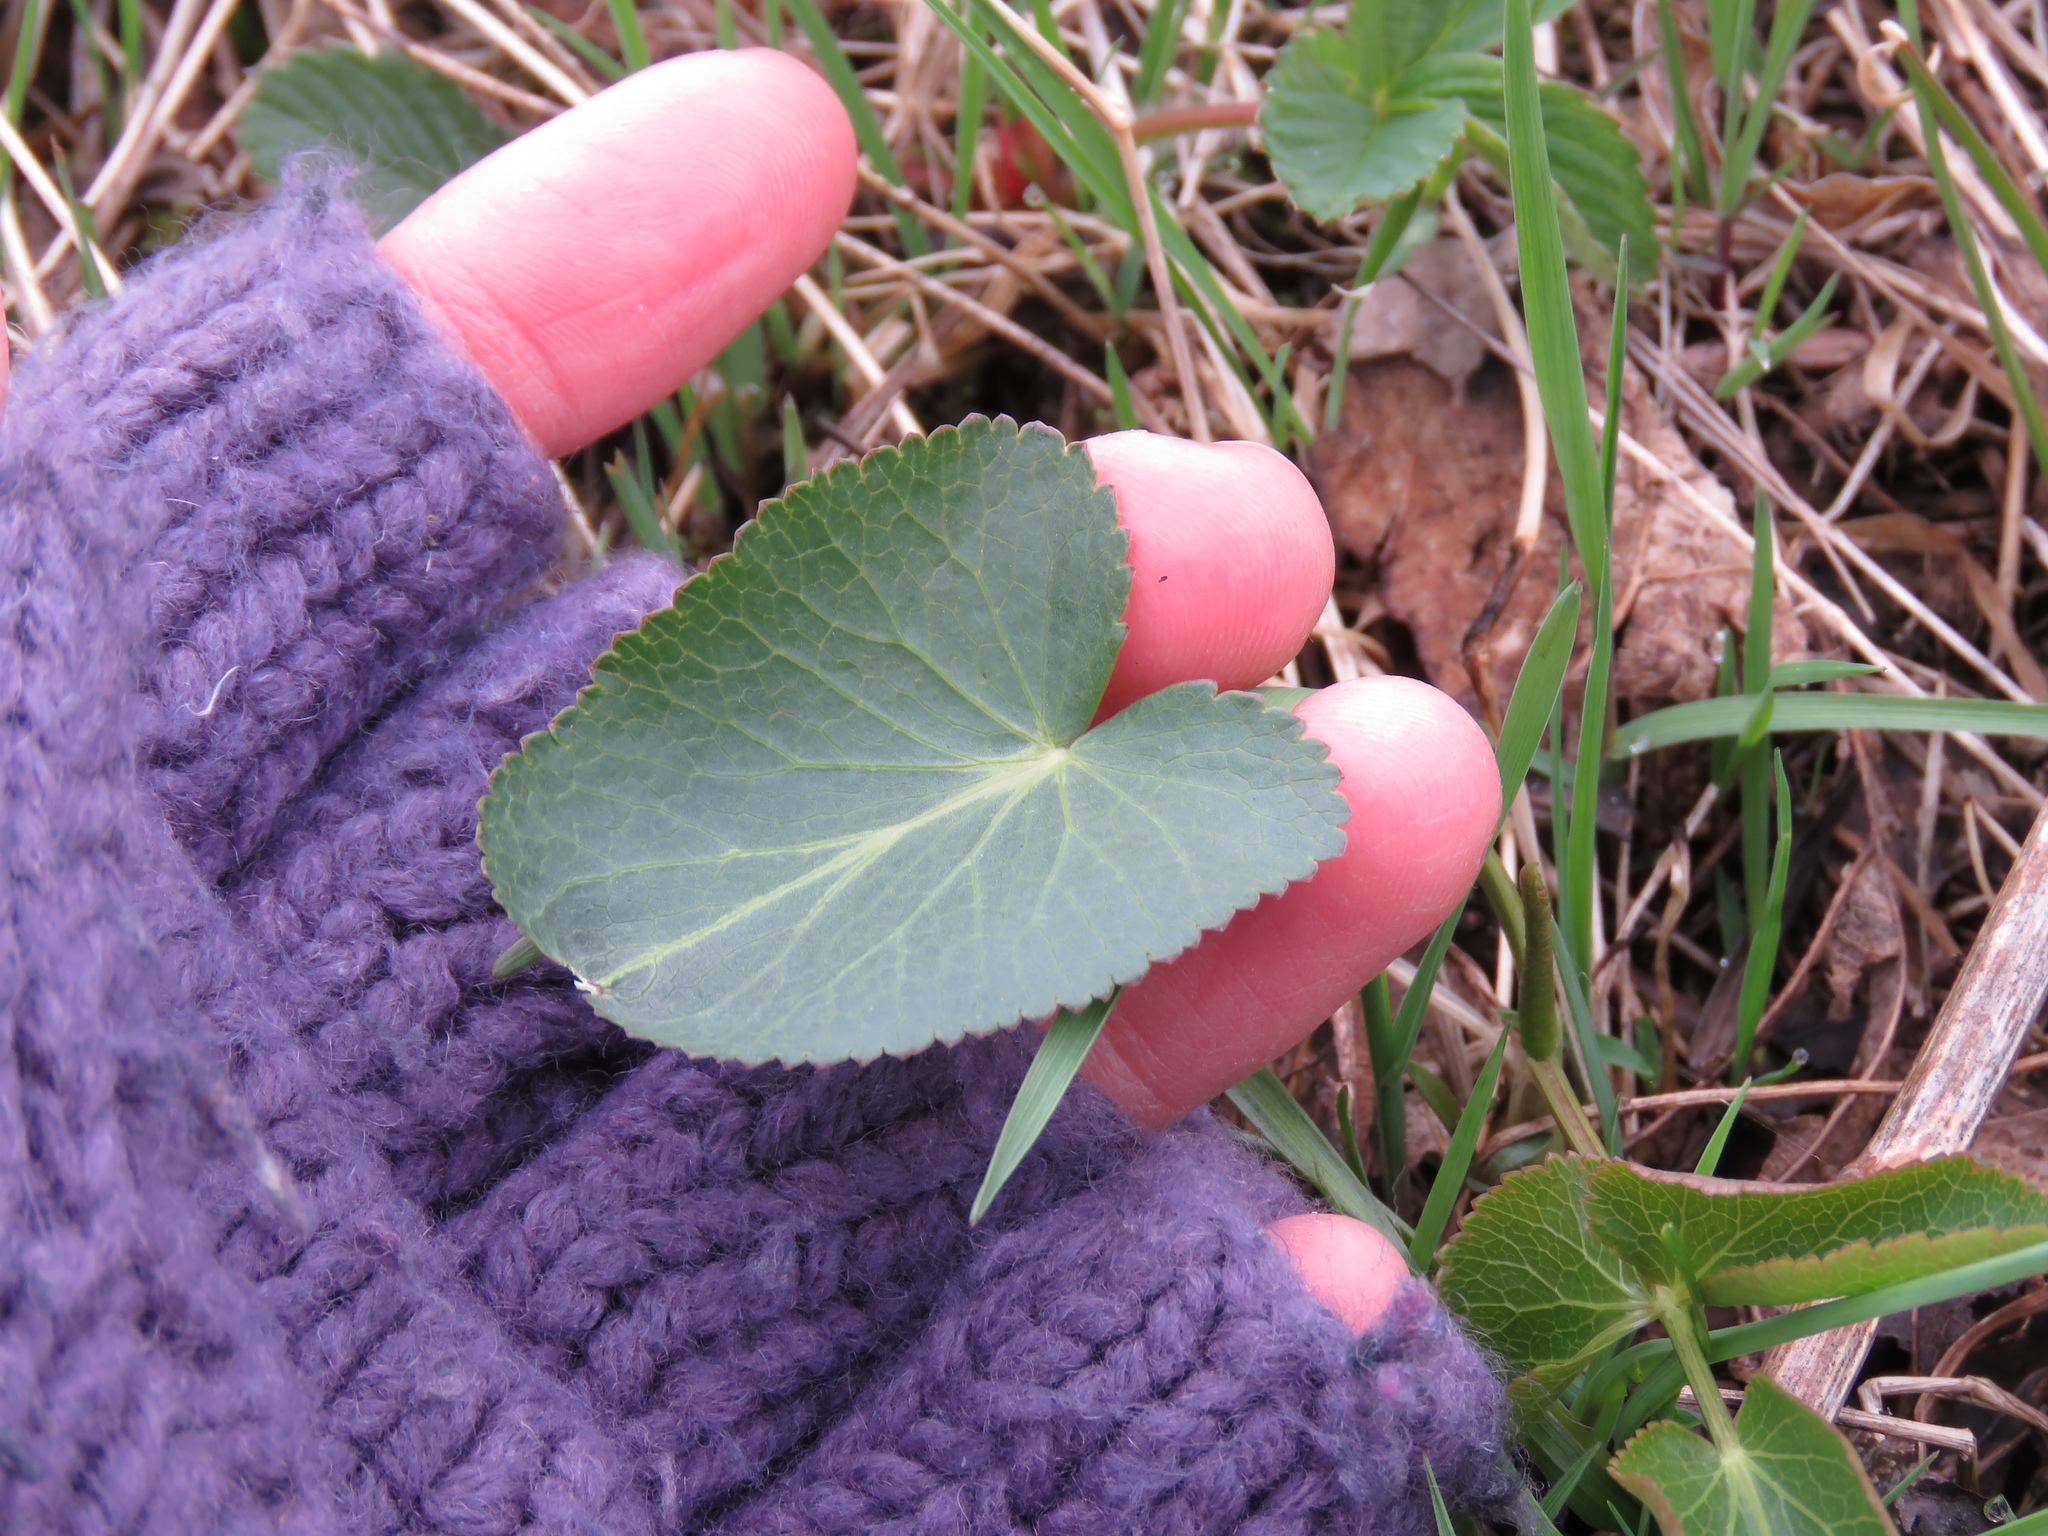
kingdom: Plantae
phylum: Tracheophyta
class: Magnoliopsida
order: Apiales
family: Apiaceae
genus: Zizia
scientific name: Zizia aptera
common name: Heart-leaved alexanders
